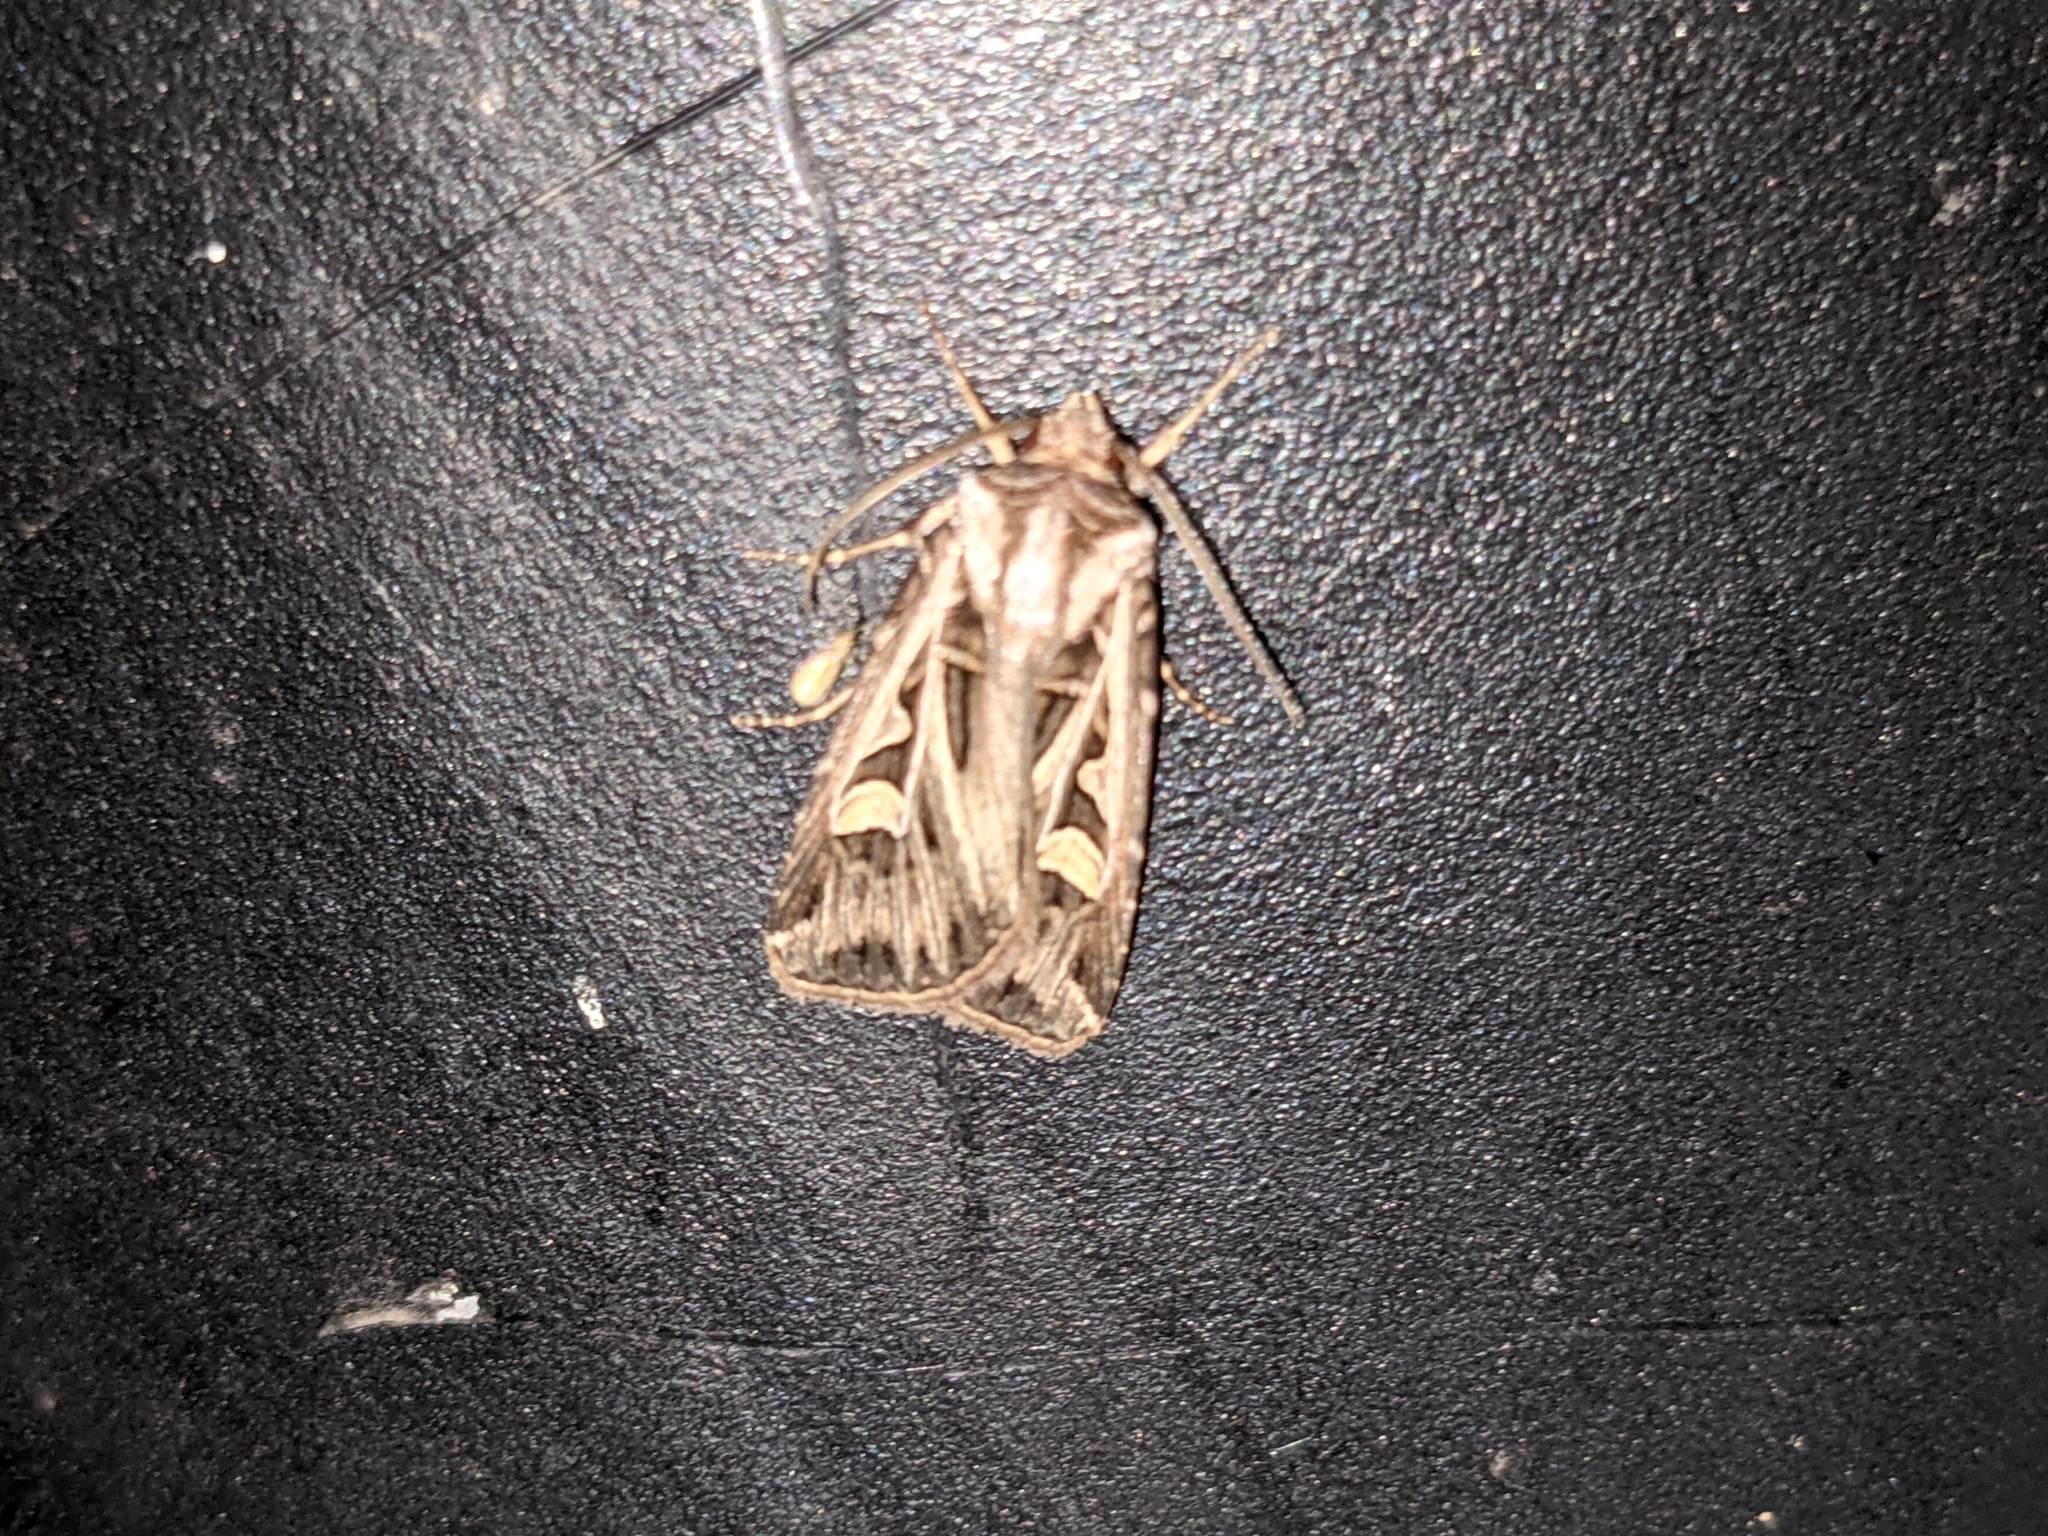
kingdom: Animalia
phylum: Arthropoda
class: Insecta
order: Lepidoptera
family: Noctuidae
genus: Feltia
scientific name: Feltia jaculifera
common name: Dingy cutworm moth
